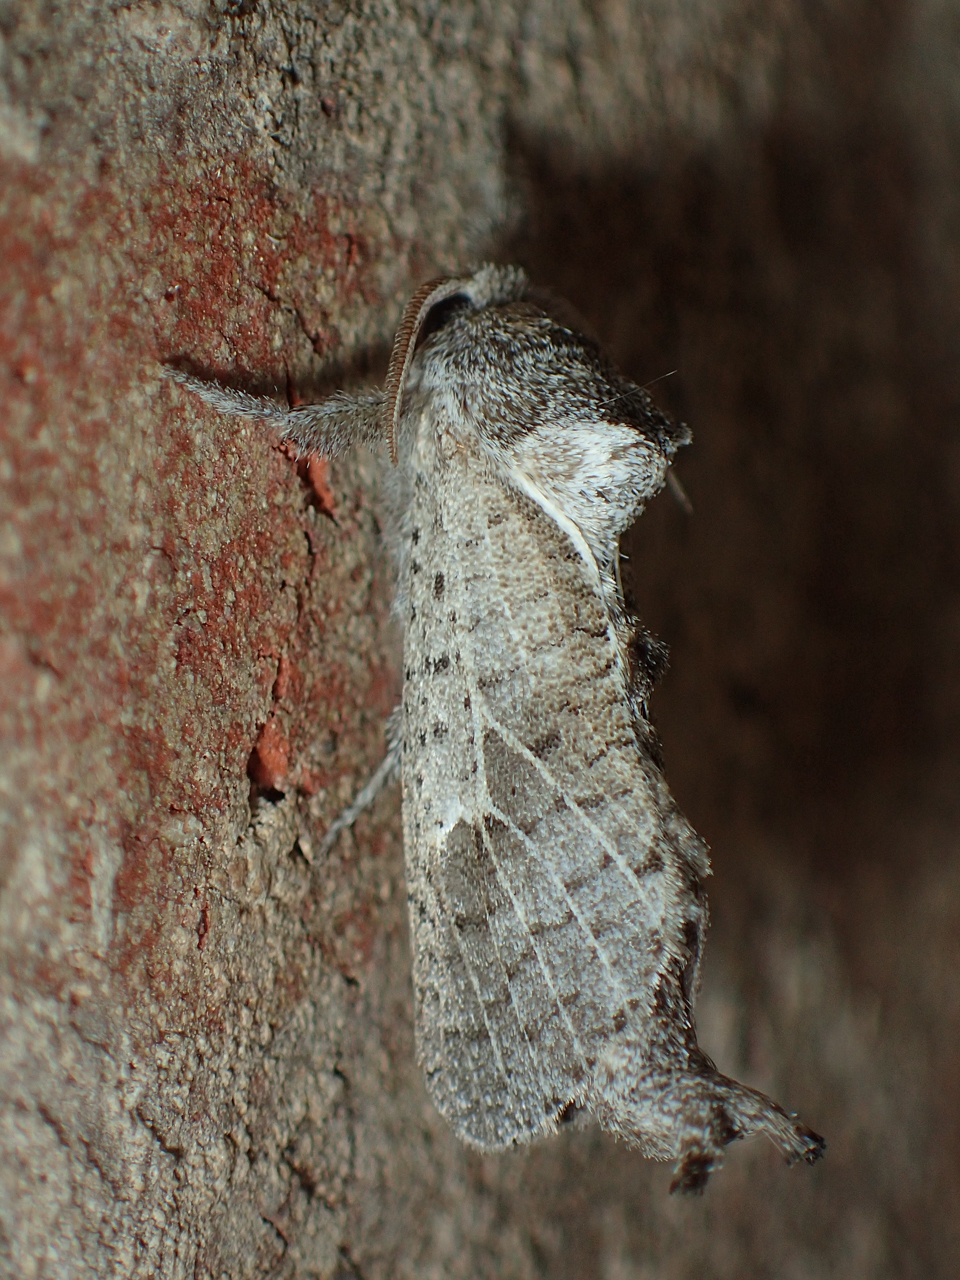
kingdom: Animalia
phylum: Arthropoda
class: Insecta
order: Lepidoptera
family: Cossidae
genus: Givira
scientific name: Givira anna
